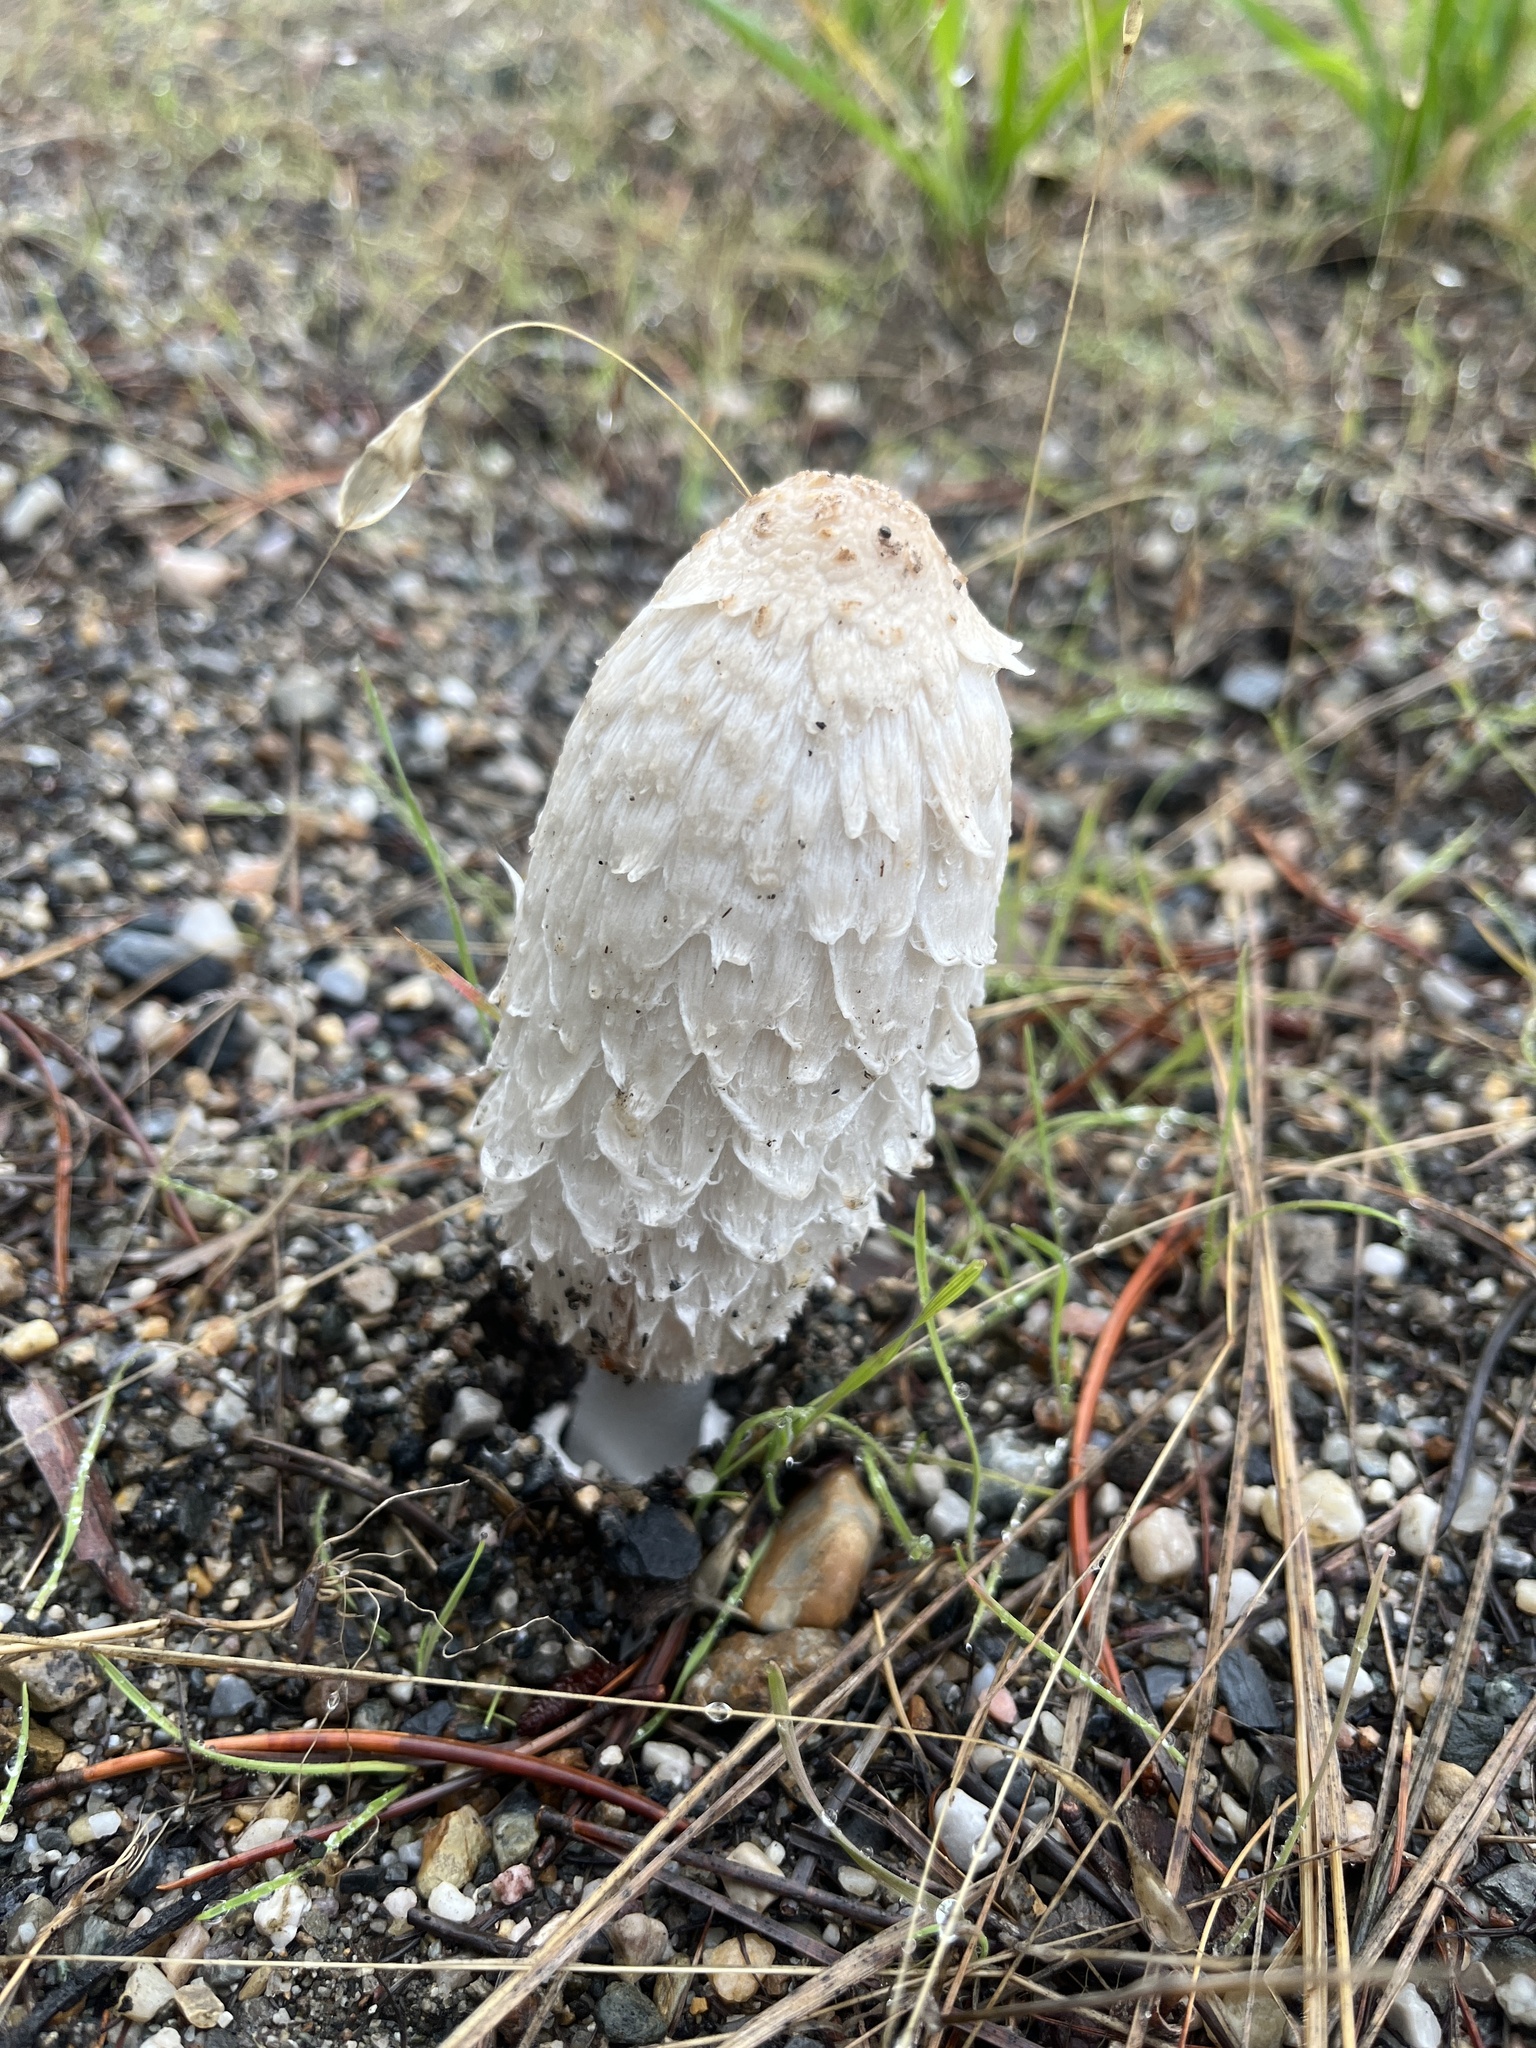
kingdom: Fungi
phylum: Basidiomycota
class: Agaricomycetes
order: Agaricales
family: Agaricaceae
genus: Coprinus
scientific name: Coprinus comatus
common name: Lawyer's wig
